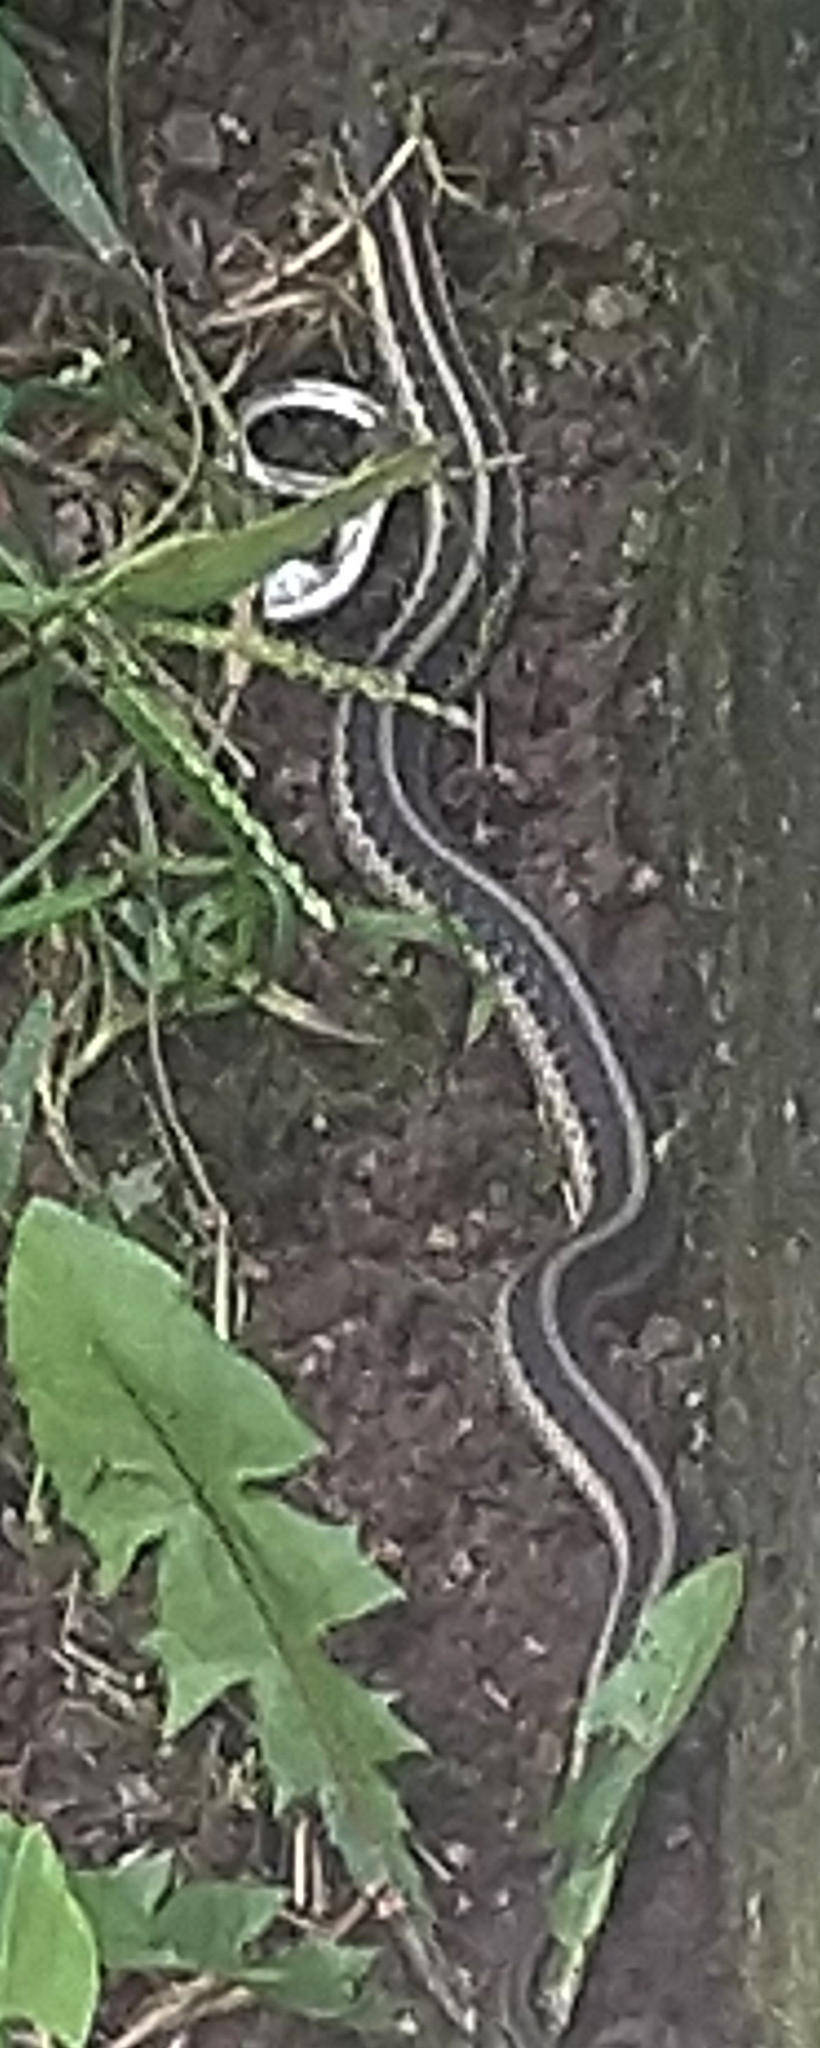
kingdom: Animalia
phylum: Chordata
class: Squamata
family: Colubridae
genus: Thamnophis
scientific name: Thamnophis sirtalis
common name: Common garter snake
